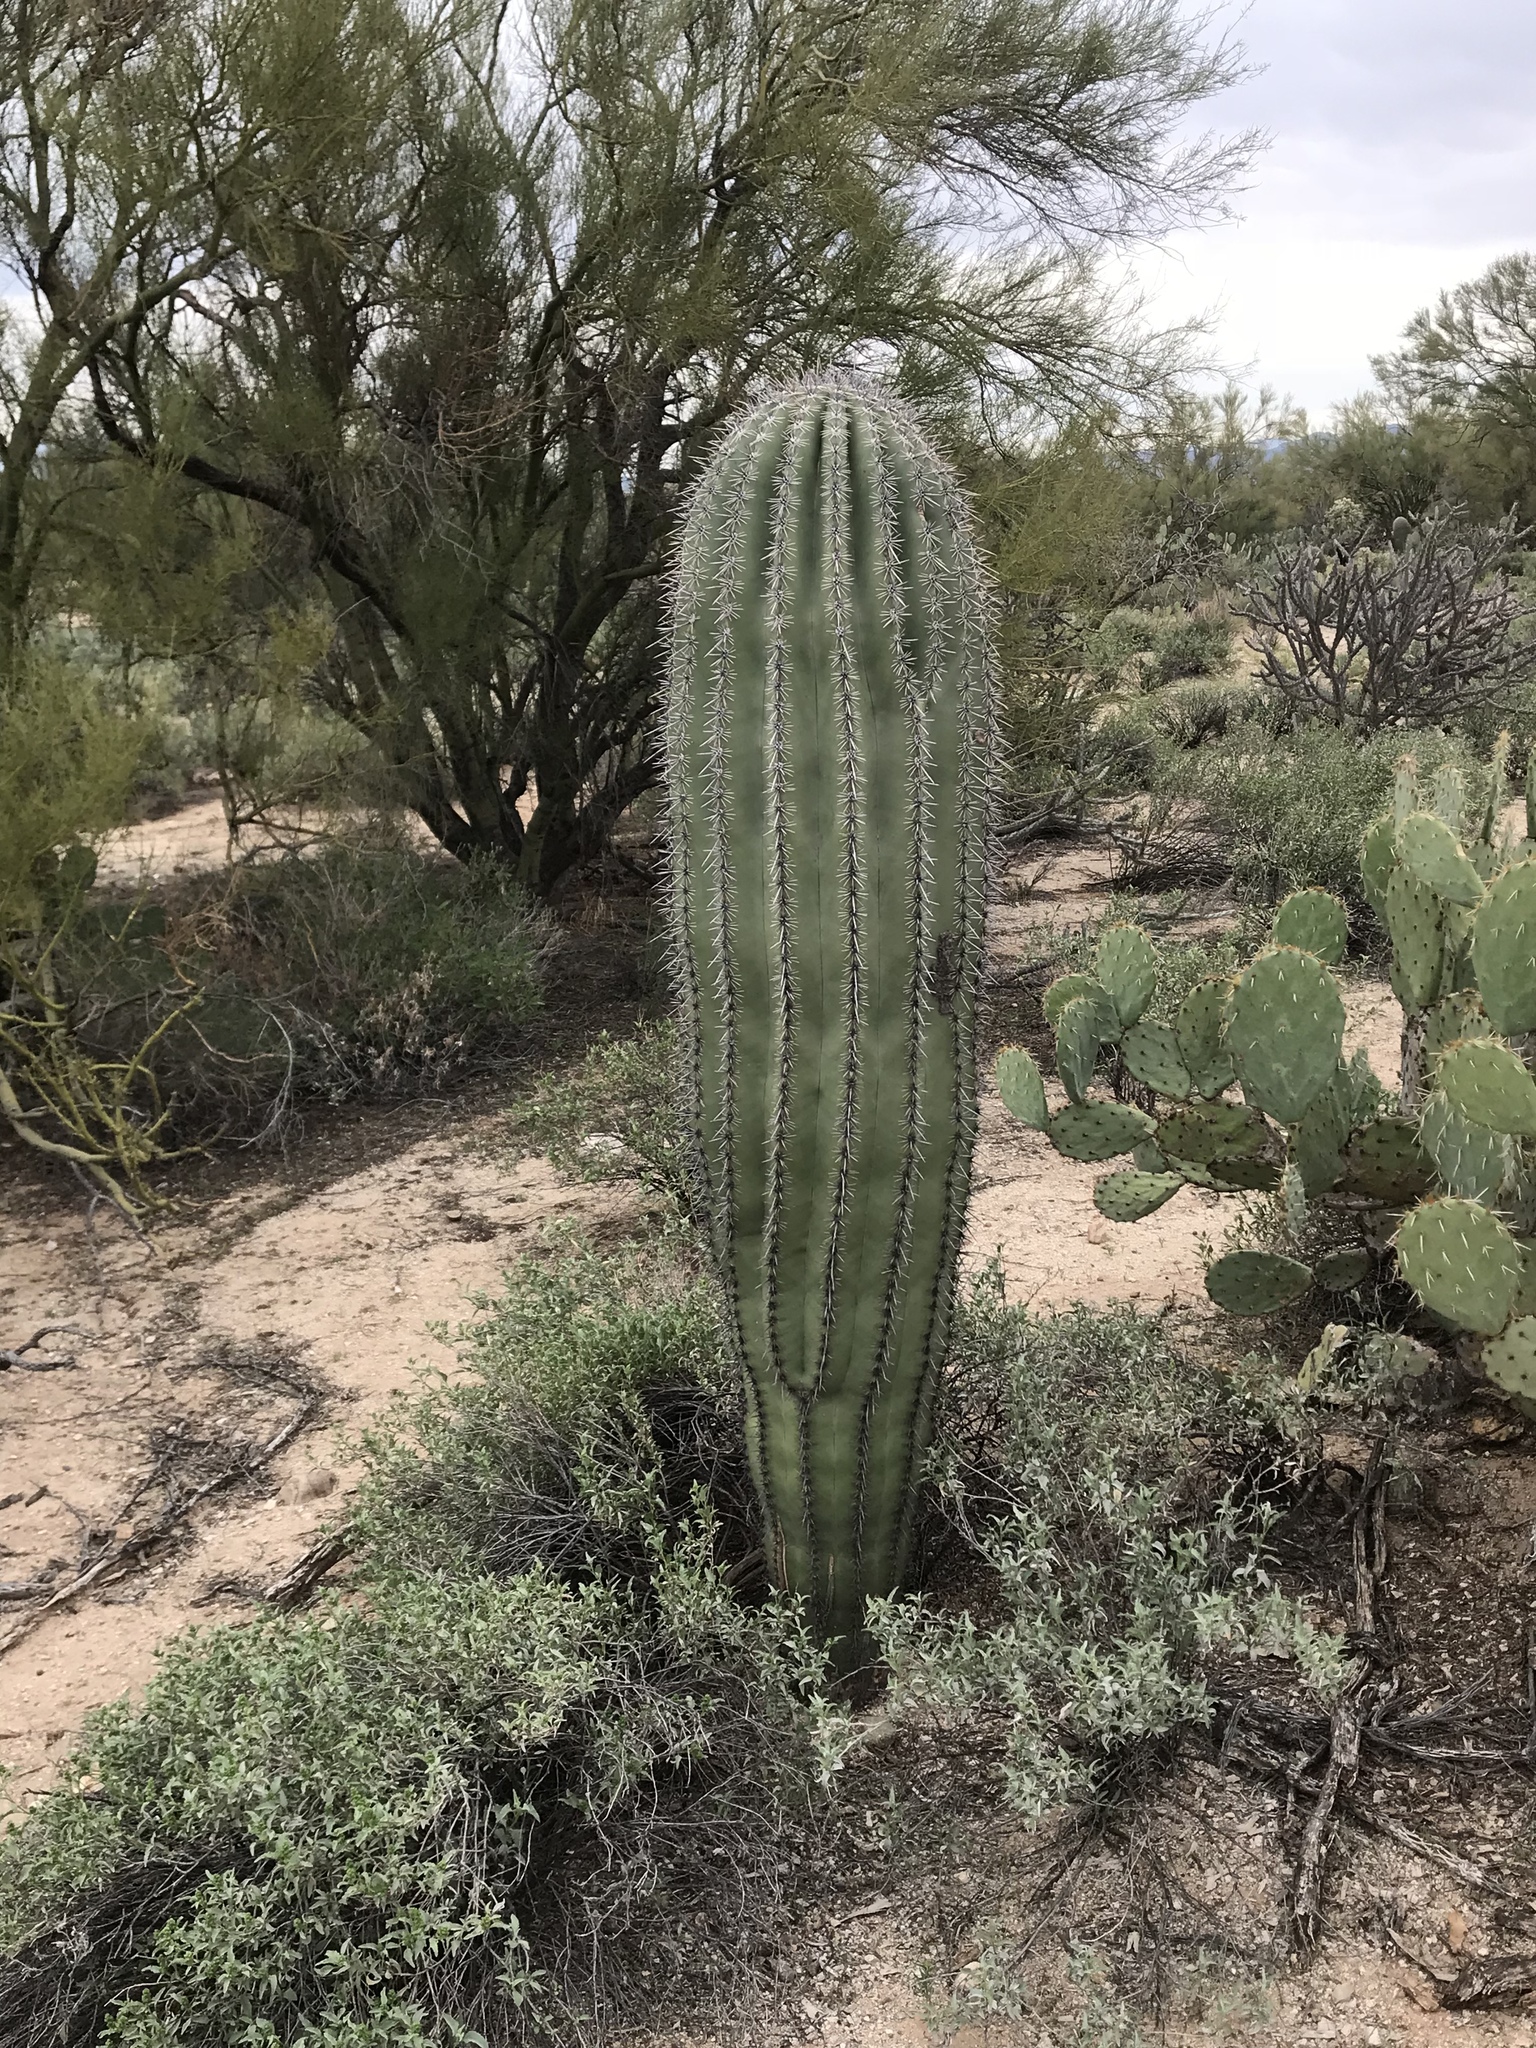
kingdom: Plantae
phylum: Tracheophyta
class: Magnoliopsida
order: Caryophyllales
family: Cactaceae
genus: Carnegiea
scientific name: Carnegiea gigantea
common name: Saguaro
